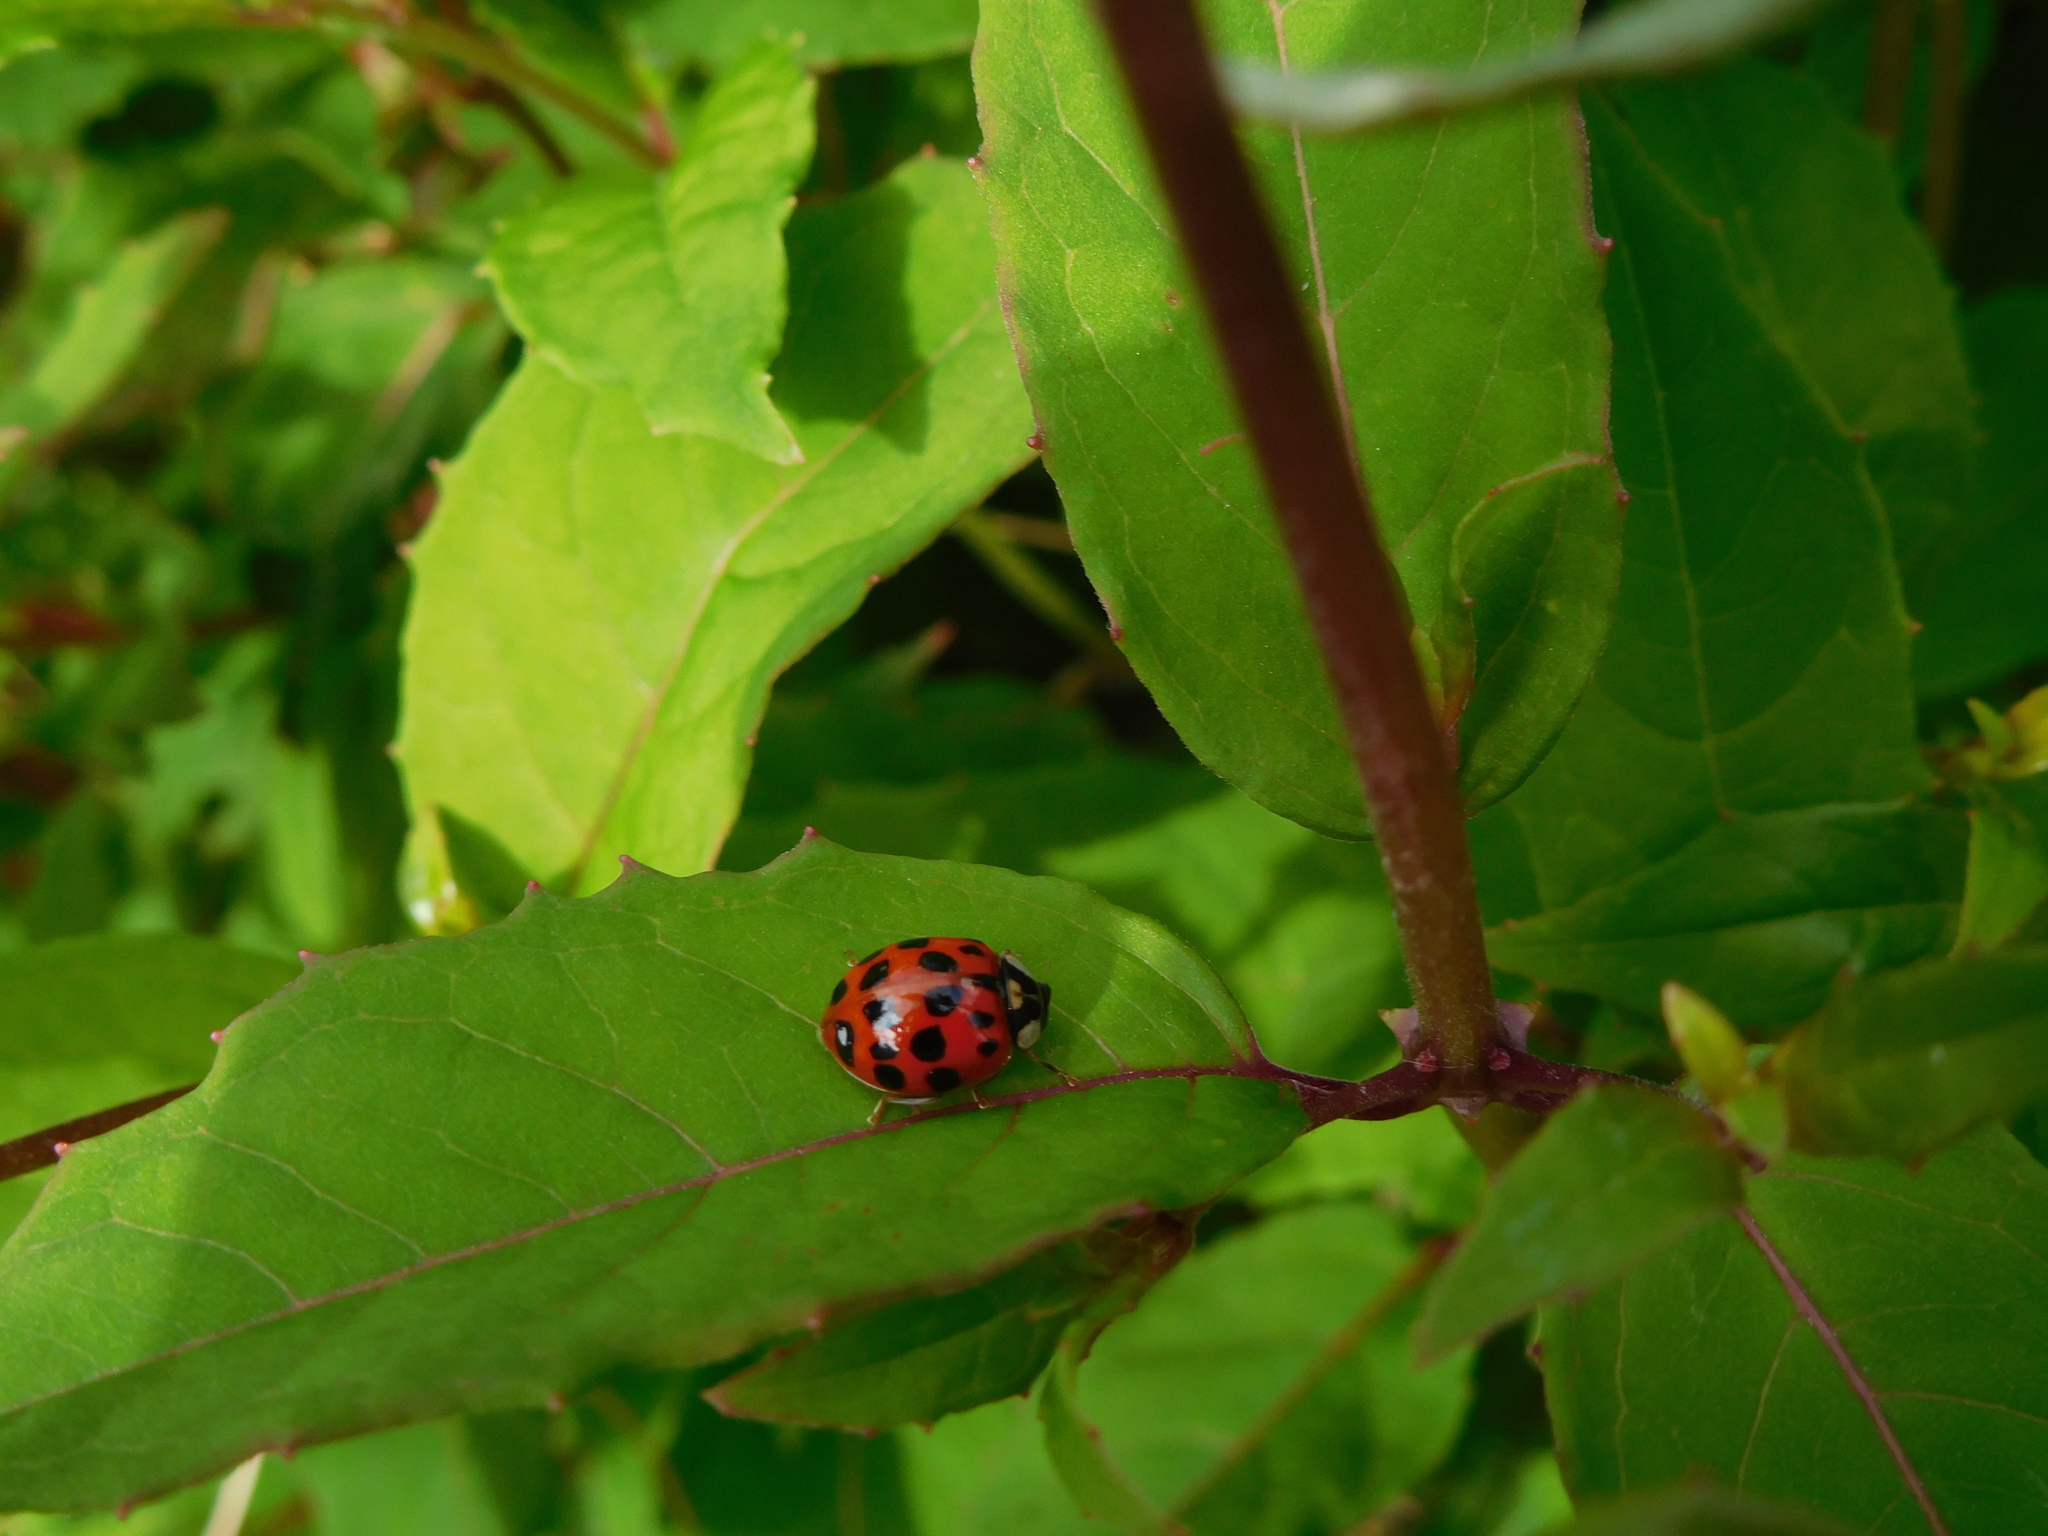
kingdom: Animalia
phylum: Arthropoda
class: Insecta
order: Coleoptera
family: Coccinellidae
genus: Harmonia
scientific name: Harmonia axyridis
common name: Harlequin ladybird
